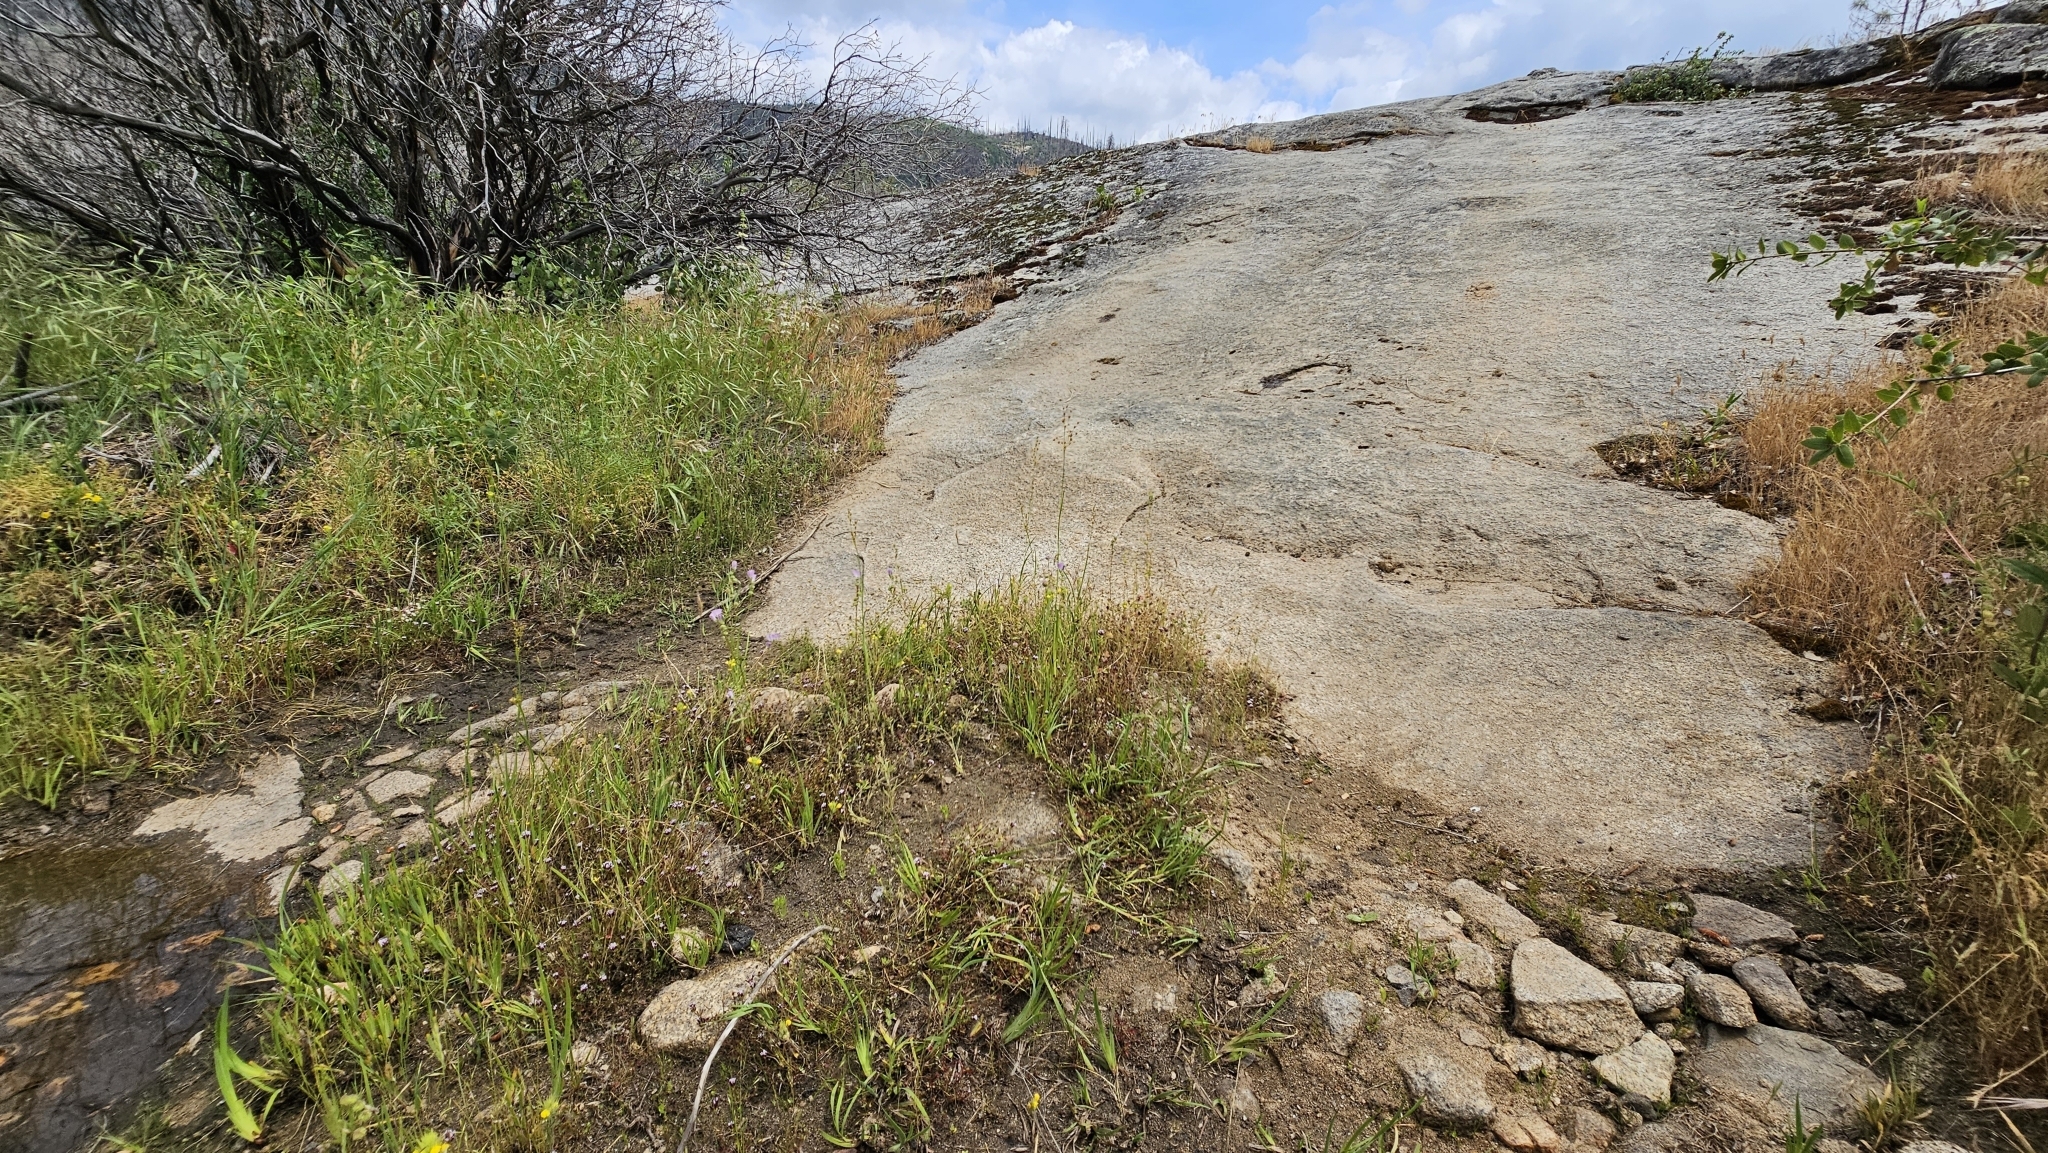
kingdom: Plantae
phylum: Tracheophyta
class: Magnoliopsida
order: Asterales
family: Asteraceae
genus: Jensia
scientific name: Jensia yosemitana
